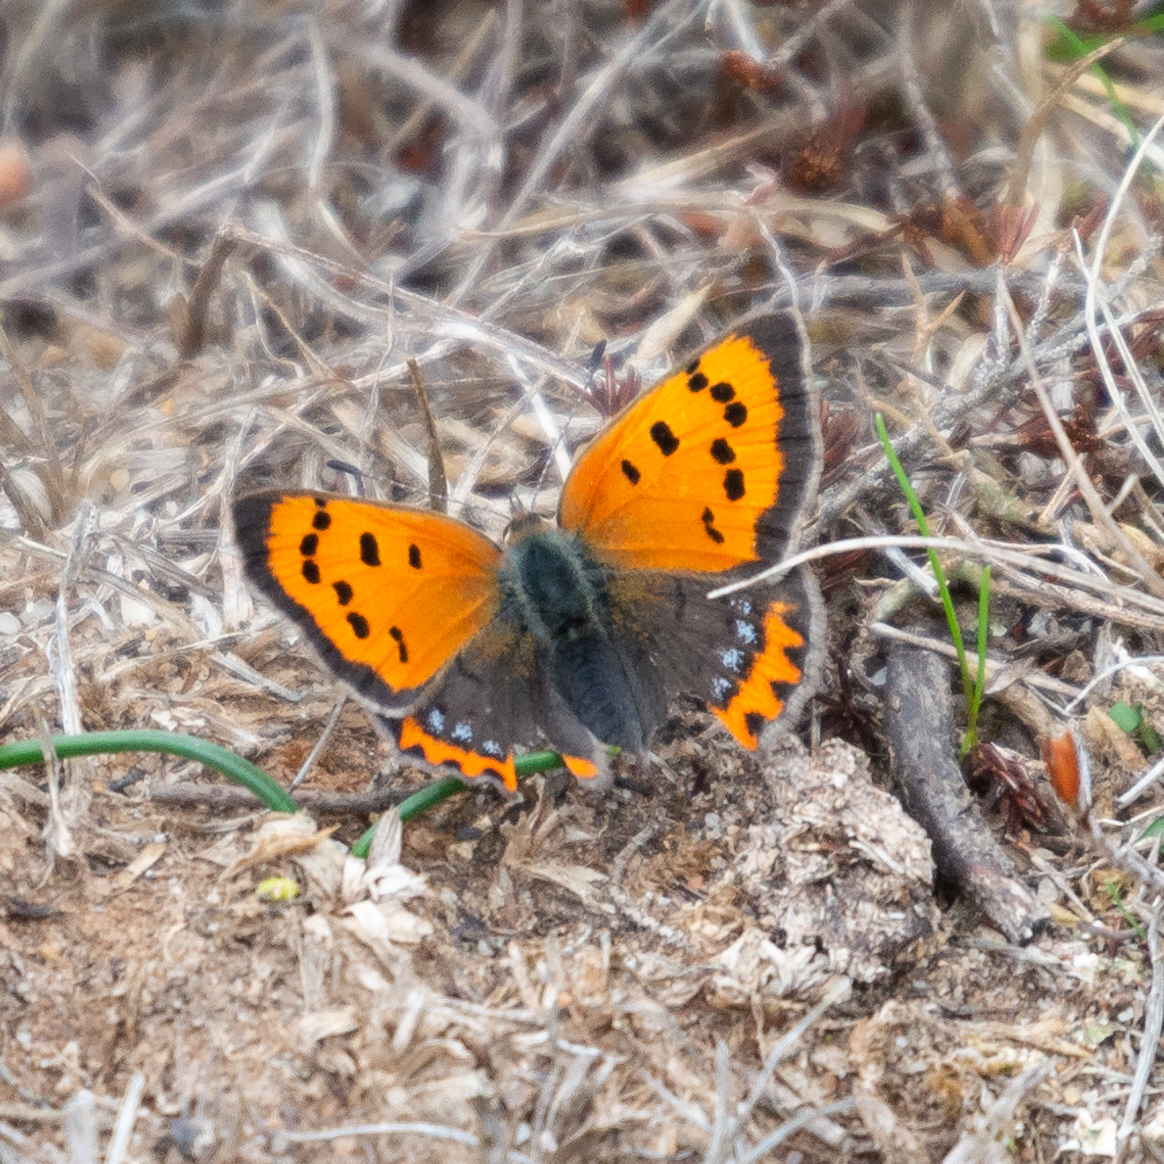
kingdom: Animalia
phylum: Arthropoda
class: Insecta
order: Lepidoptera
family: Lycaenidae
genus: Lycaena
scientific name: Lycaena phlaeas
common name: Small copper
